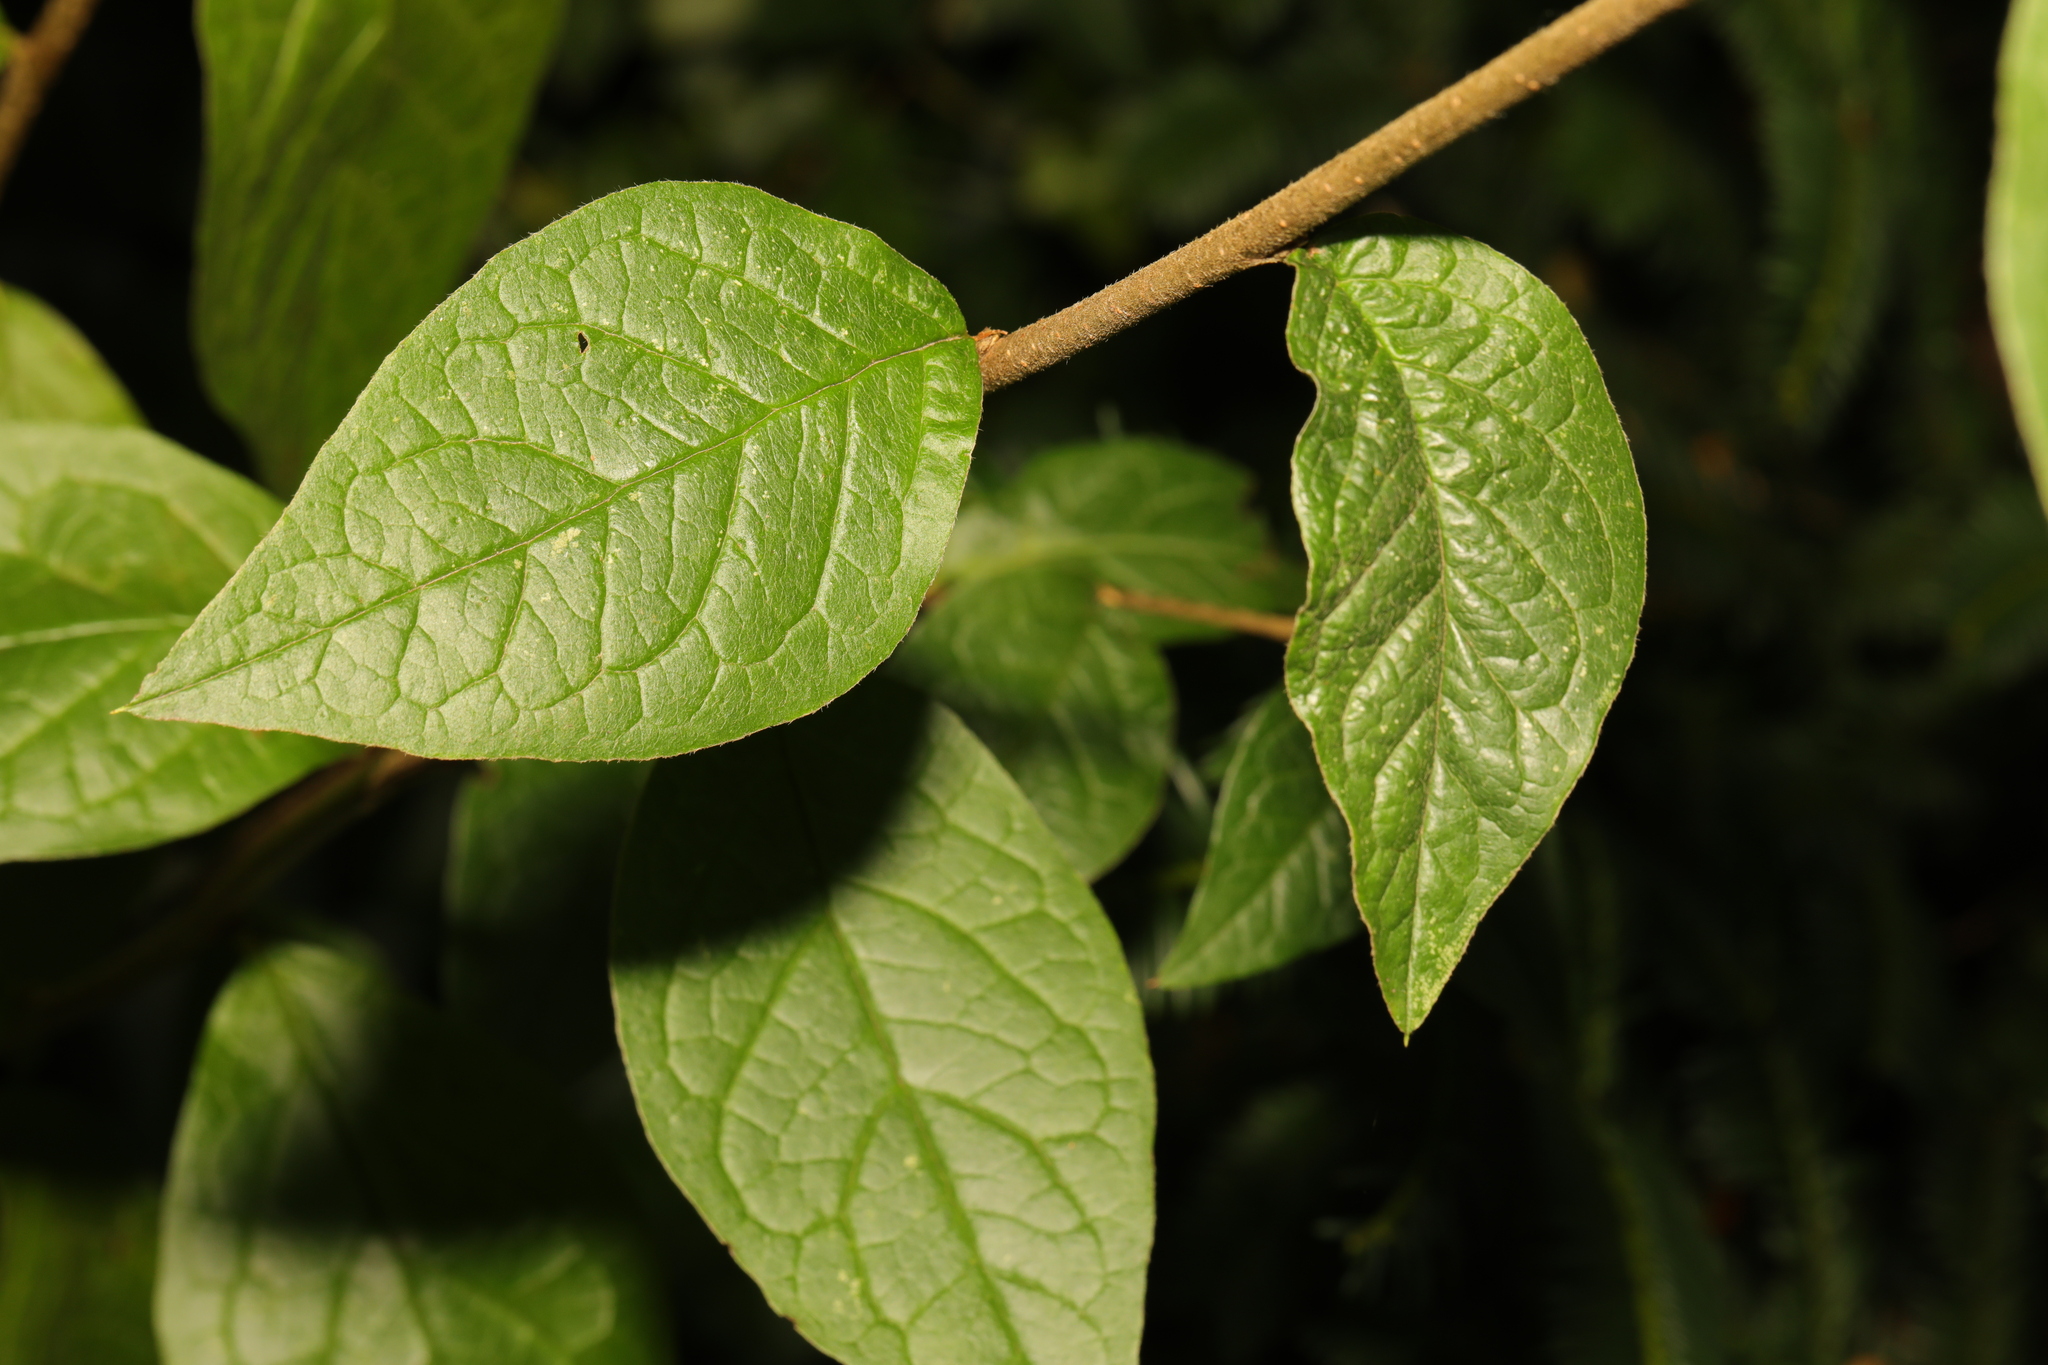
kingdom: Plantae
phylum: Tracheophyta
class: Magnoliopsida
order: Rosales
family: Rosaceae
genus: Cotoneaster
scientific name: Cotoneaster bullatus
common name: Hollyberry cotoneaster
